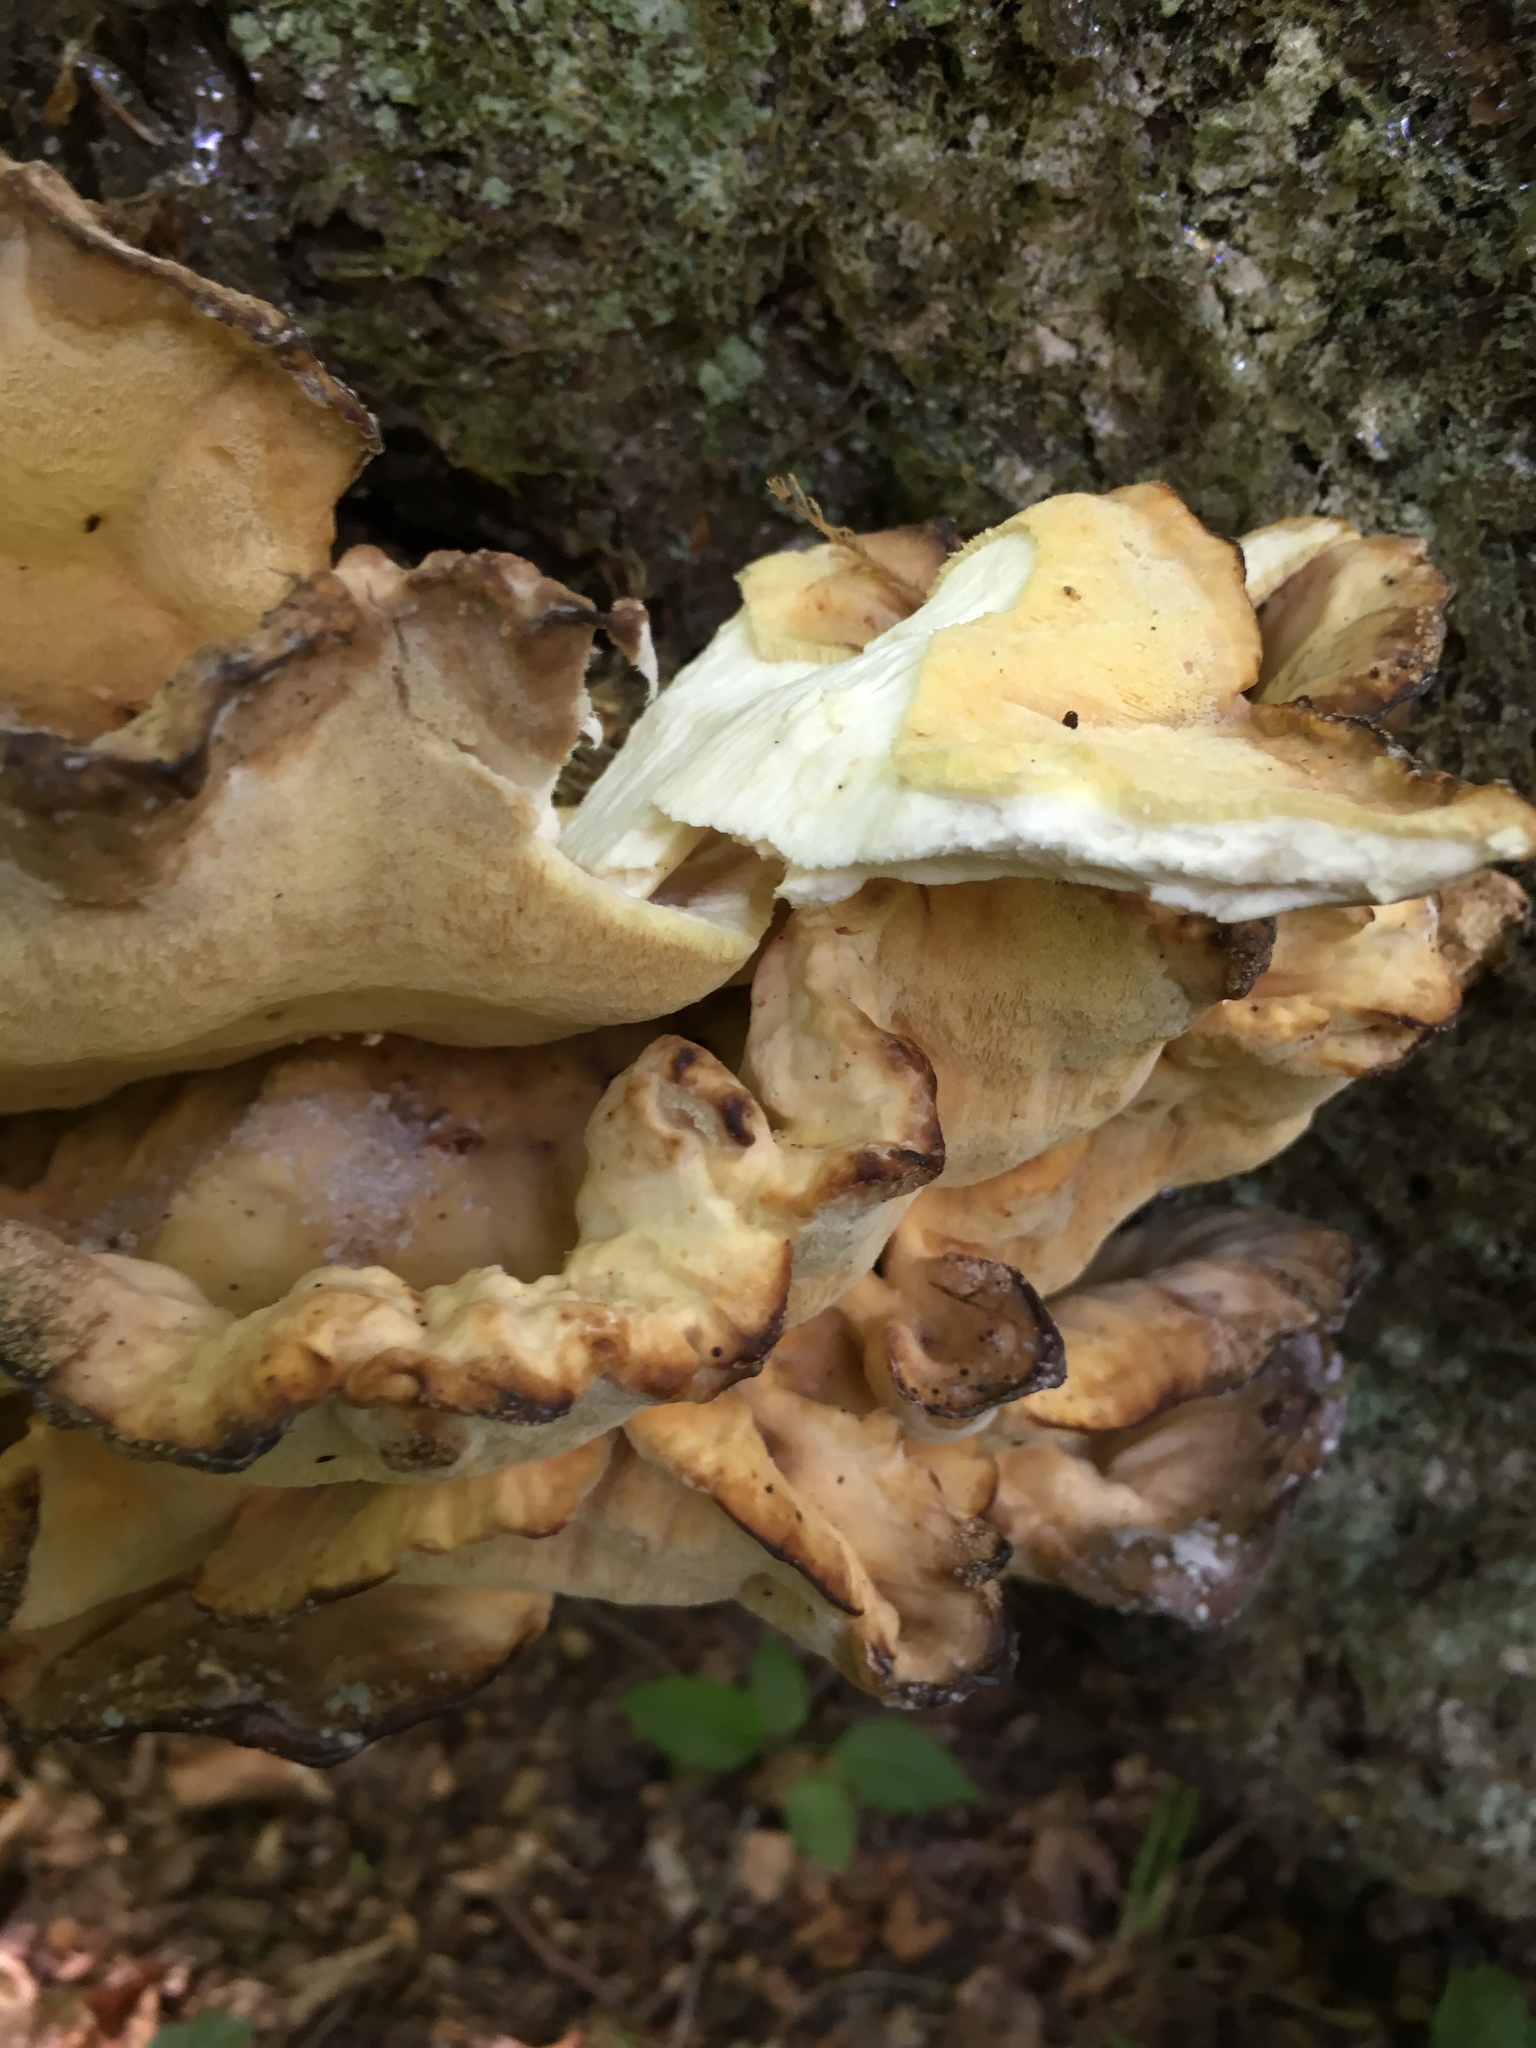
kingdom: Fungi
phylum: Basidiomycota
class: Agaricomycetes
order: Polyporales
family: Laetiporaceae
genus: Laetiporus
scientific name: Laetiporus sulphureus
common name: Chicken of the woods
